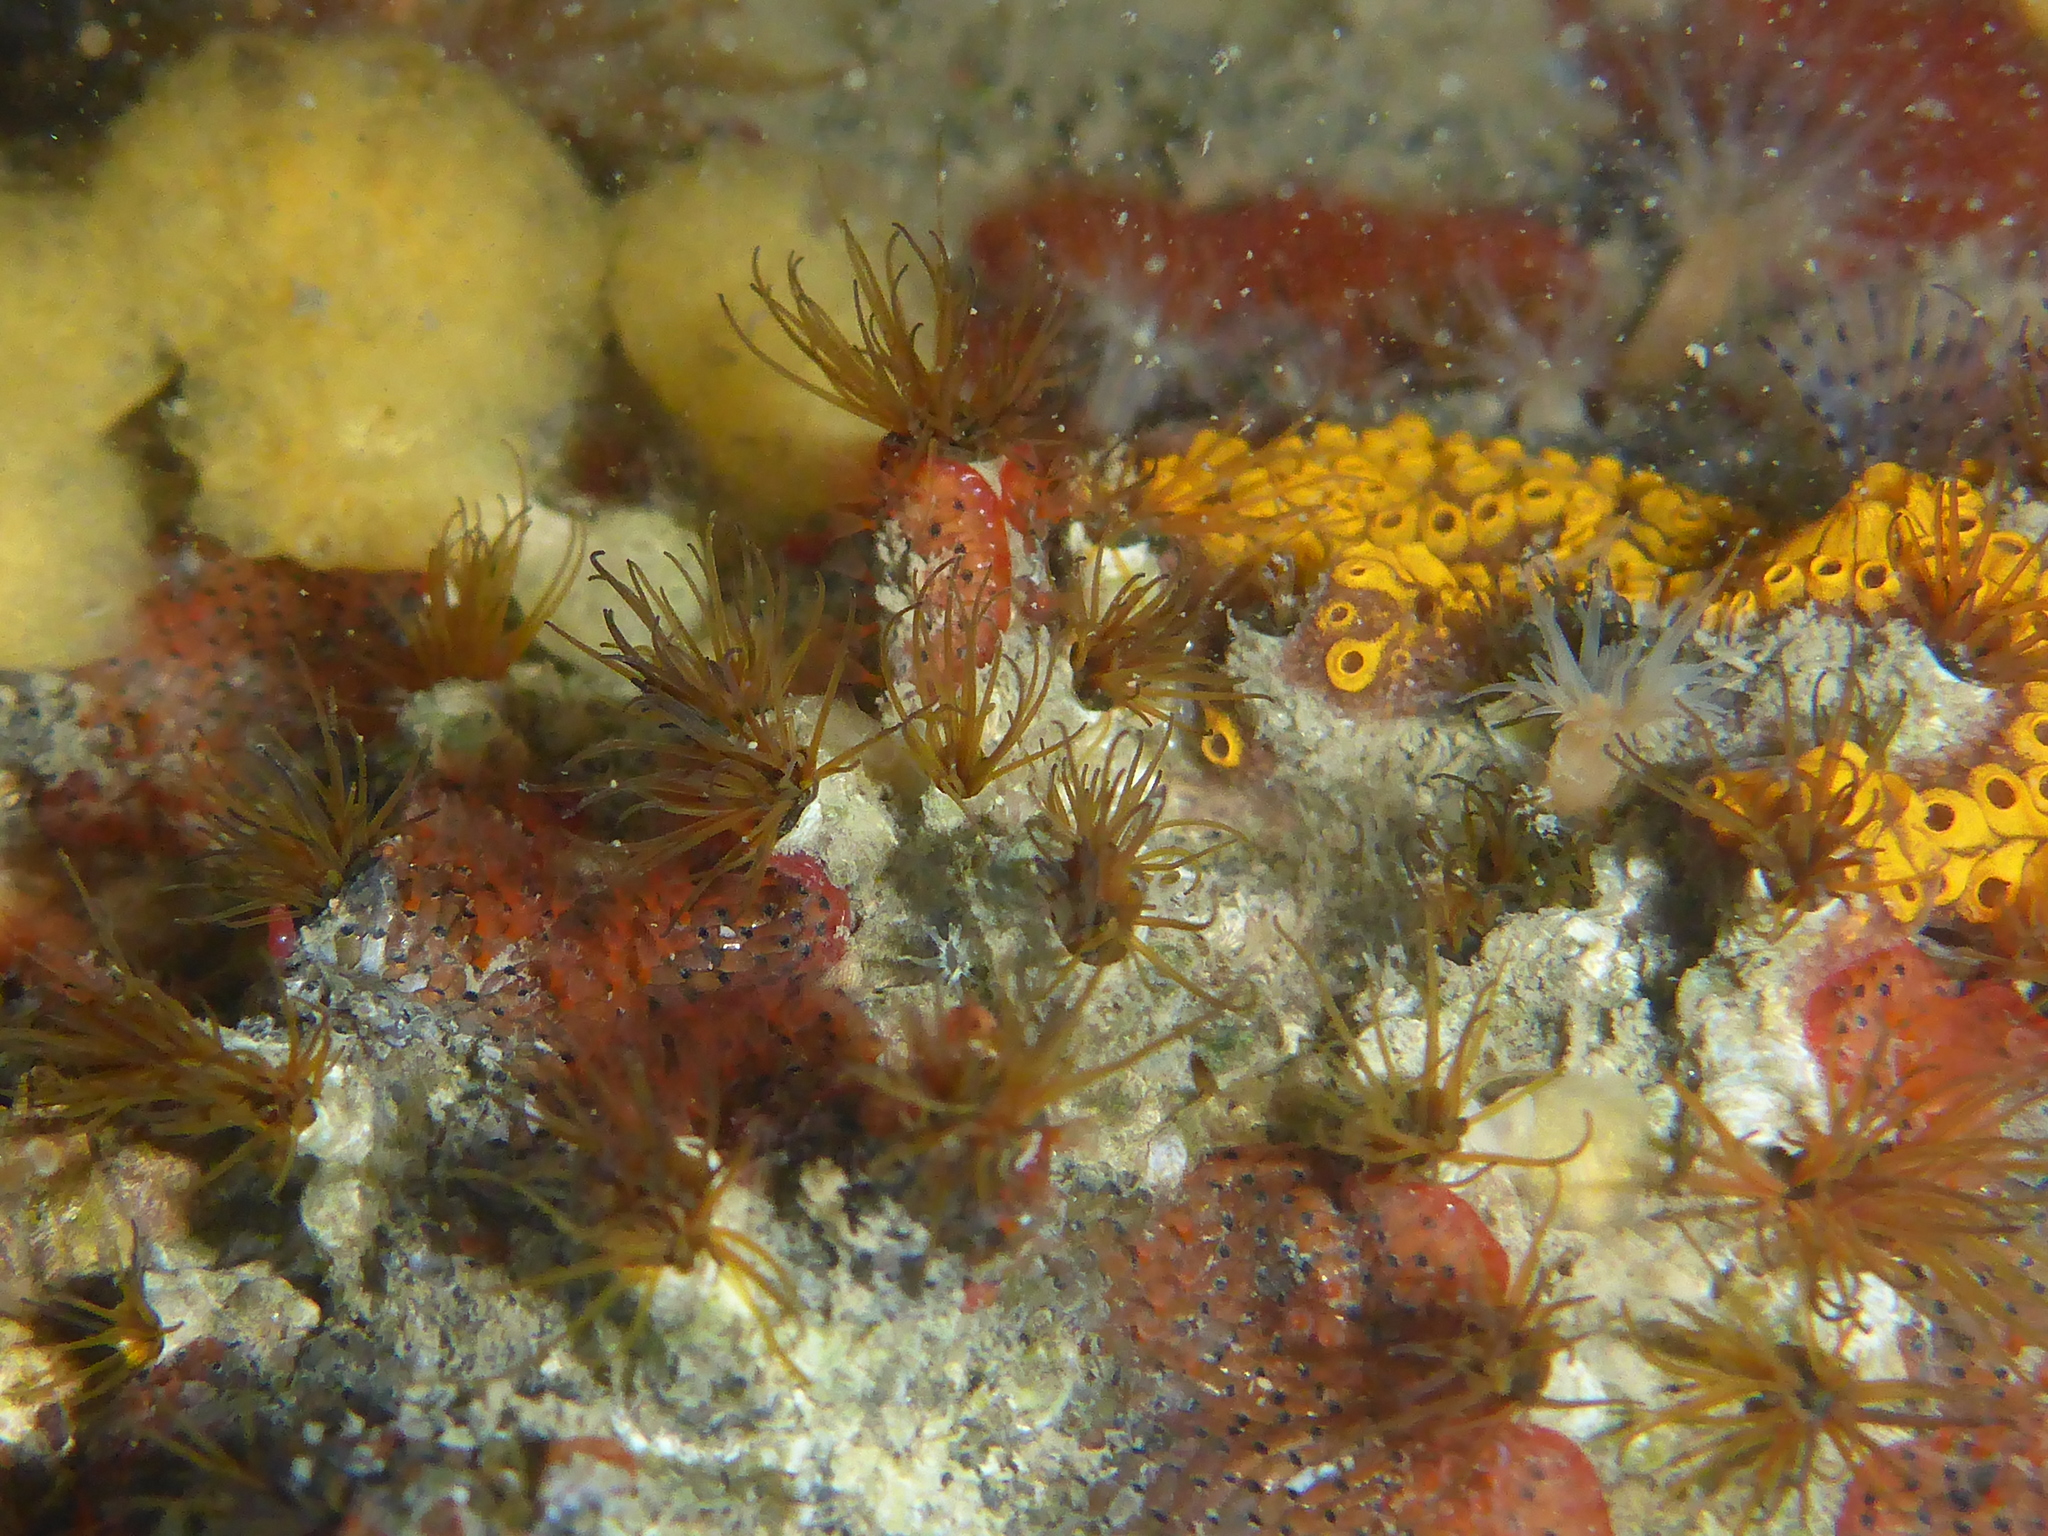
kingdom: Animalia
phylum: Annelida
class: Polychaeta
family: Cirratulidae
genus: Dodecaceria
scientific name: Dodecaceria pacifica
